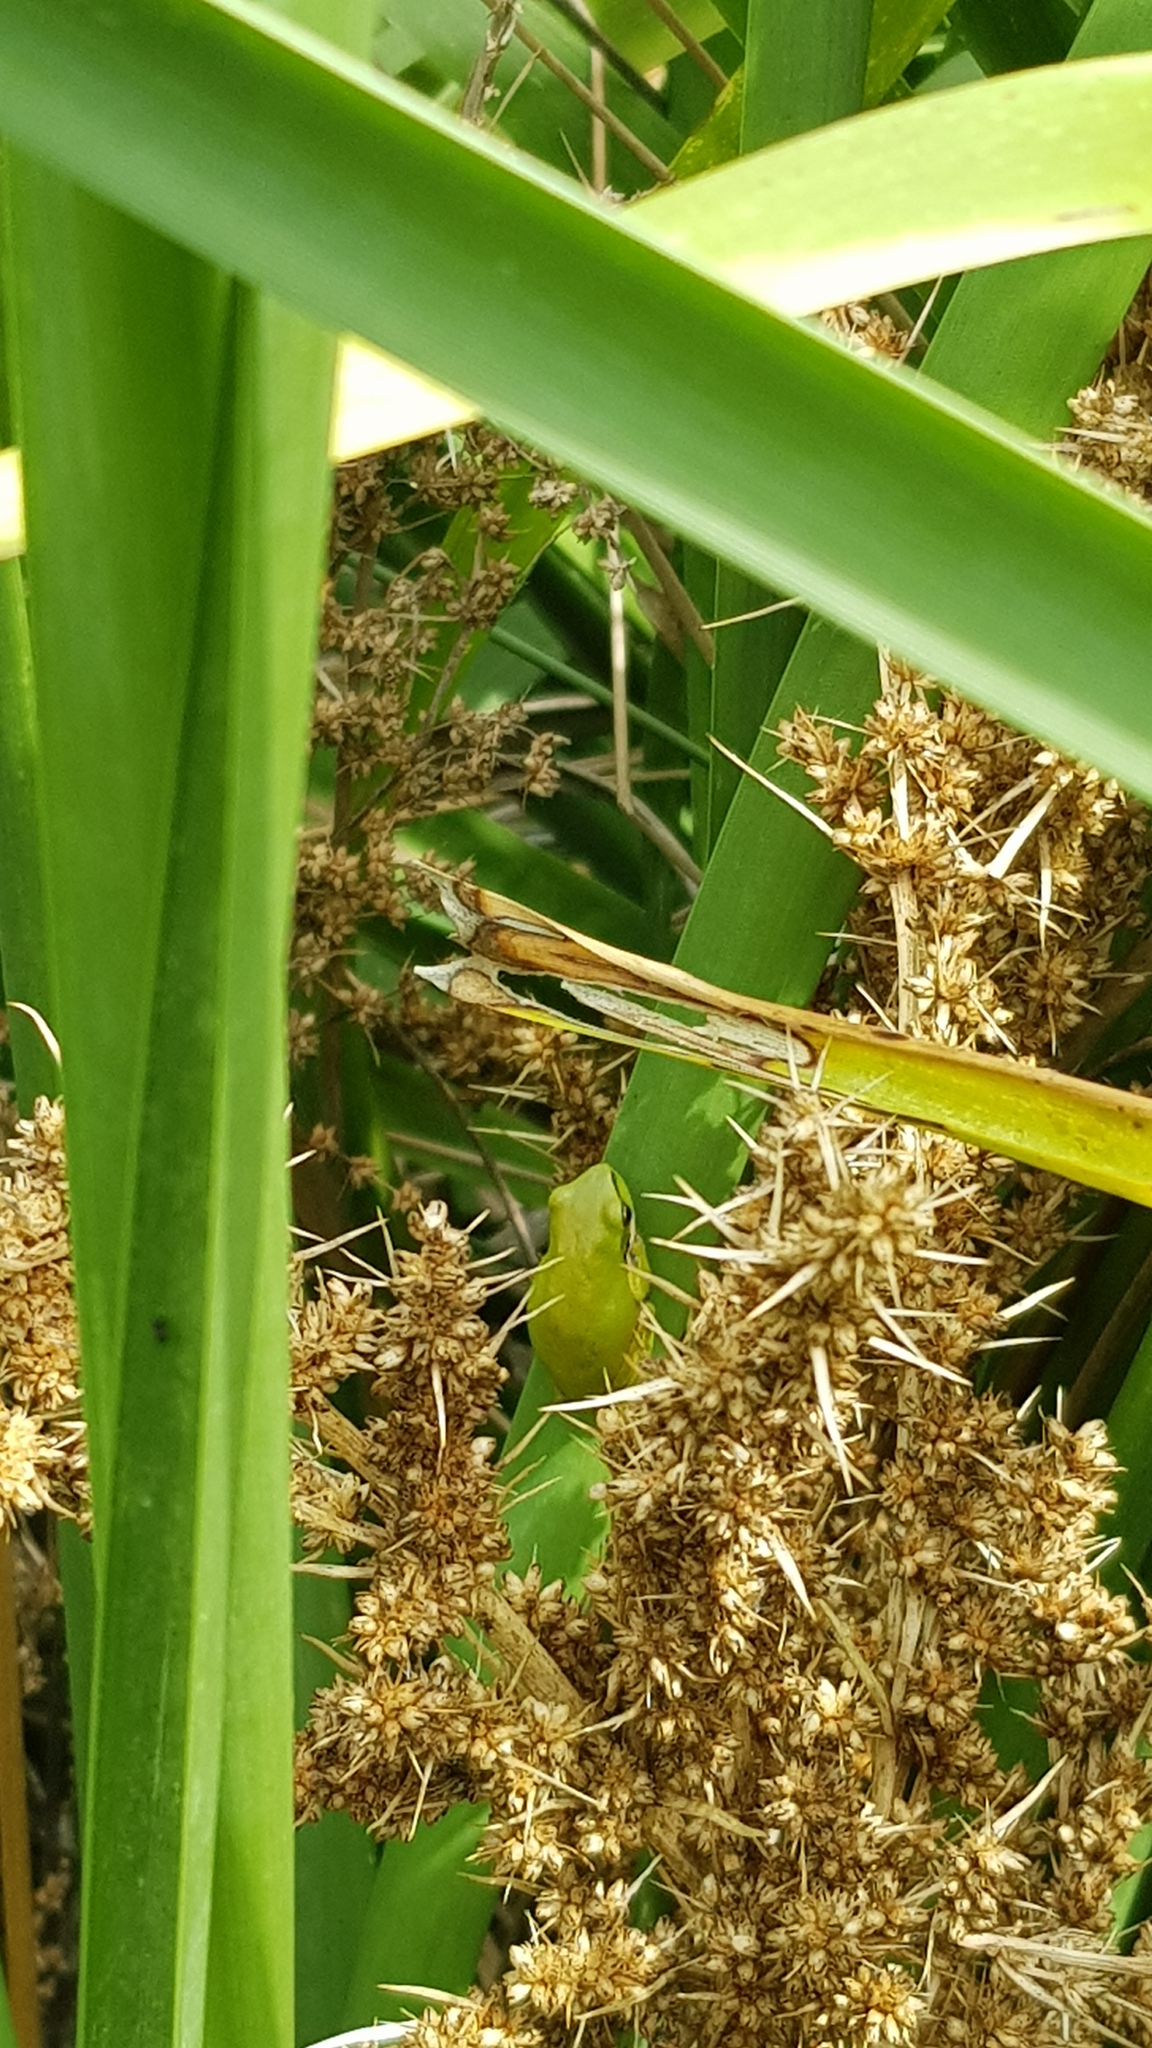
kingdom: Animalia
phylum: Chordata
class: Amphibia
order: Anura
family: Pelodryadidae
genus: Litoria
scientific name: Litoria fallax
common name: Eastern dwarf treefrog
